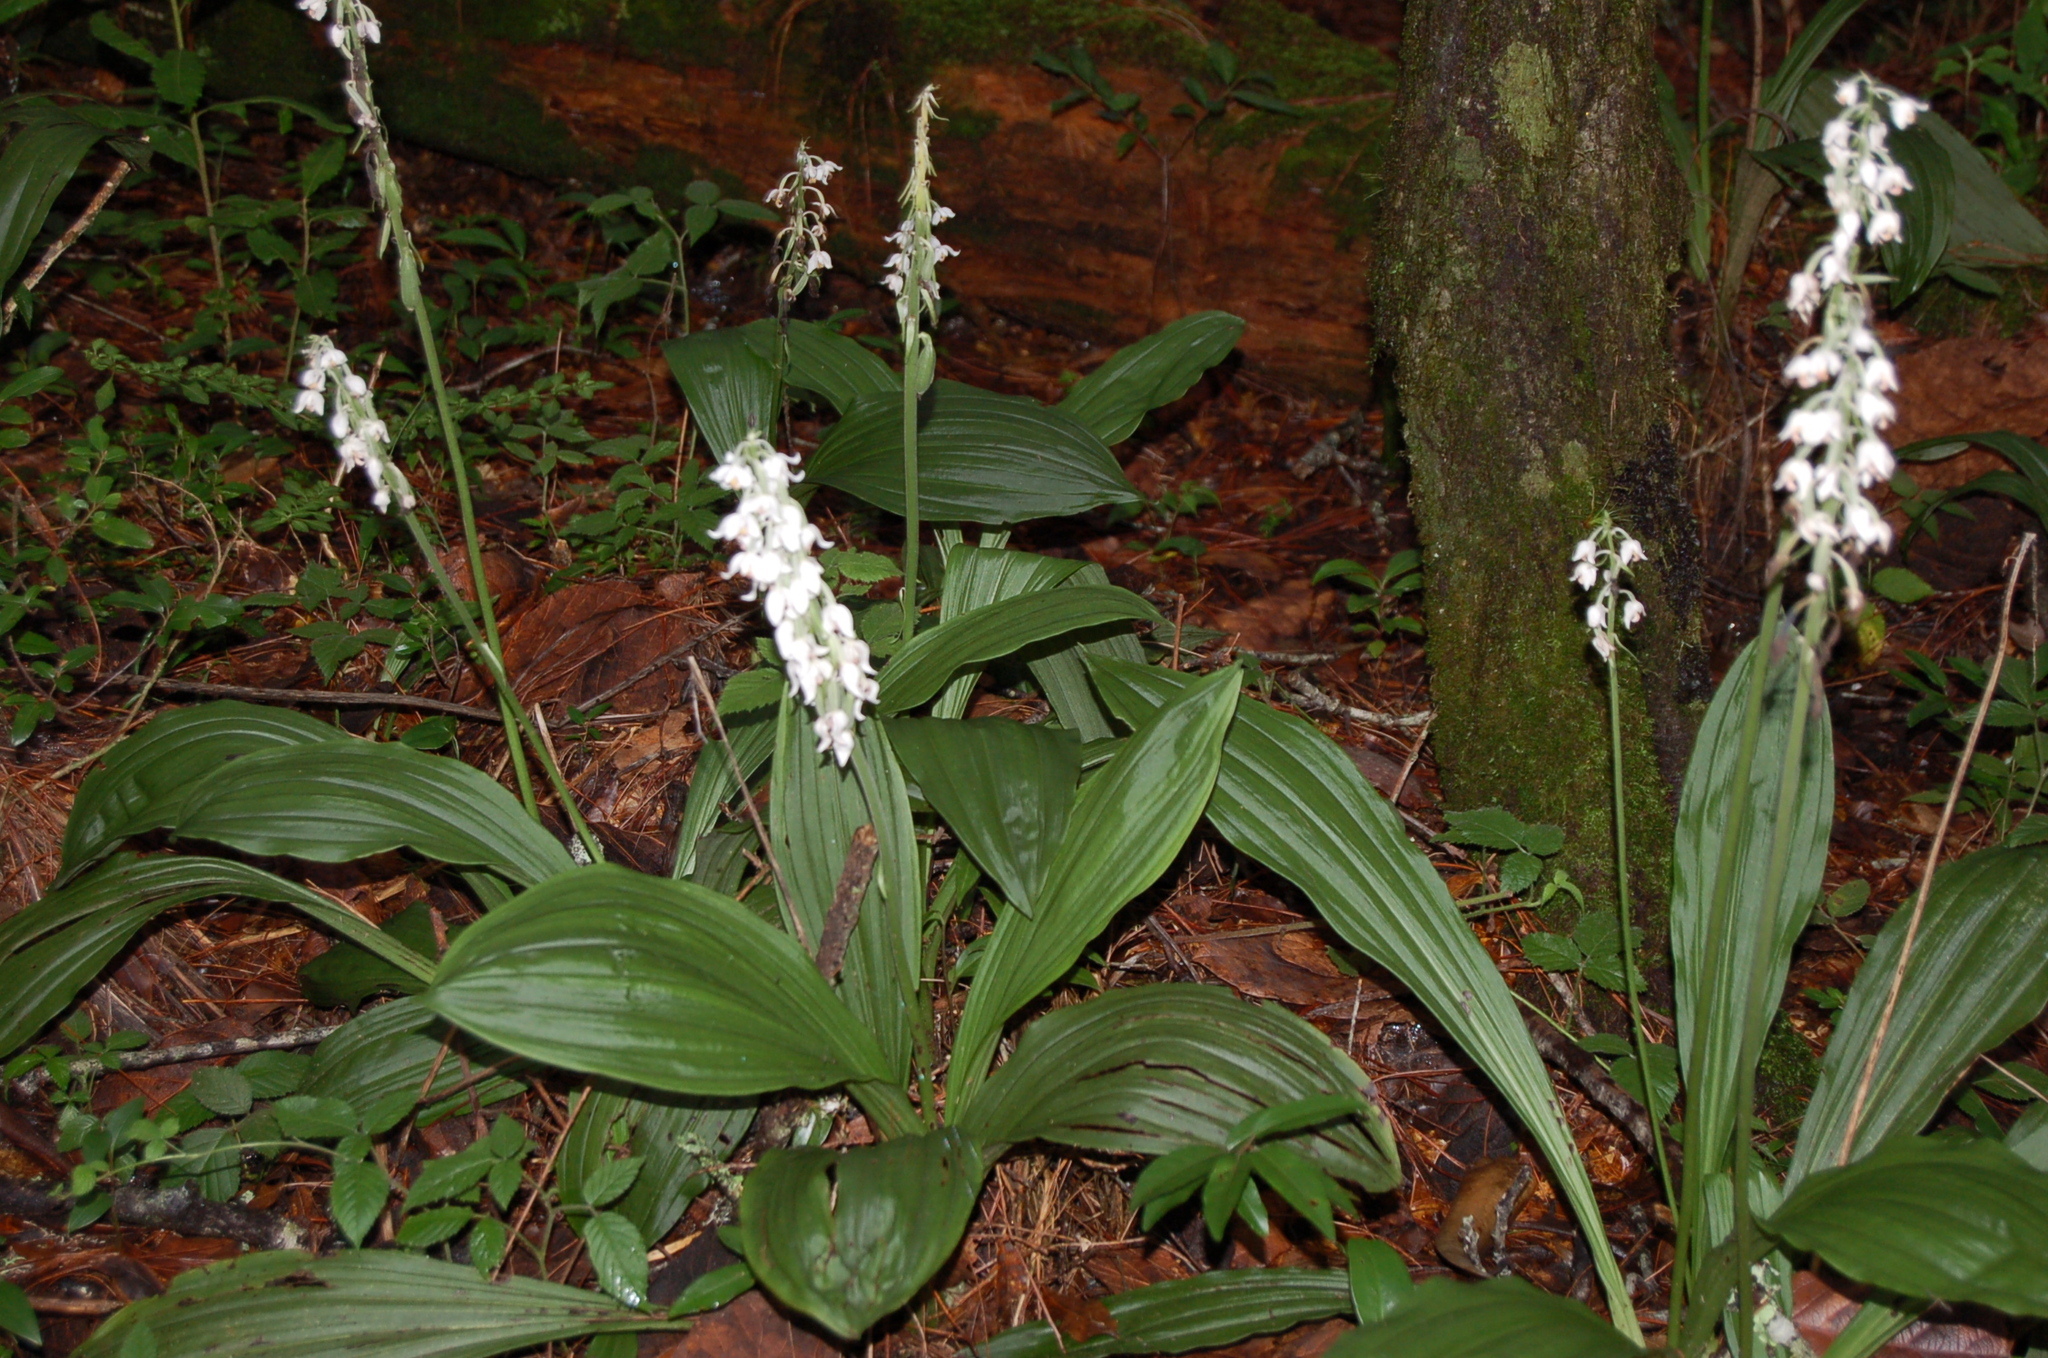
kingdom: Plantae
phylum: Tracheophyta
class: Liliopsida
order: Asparagales
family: Orchidaceae
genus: Calanthe
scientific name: Calanthe calanthoides
